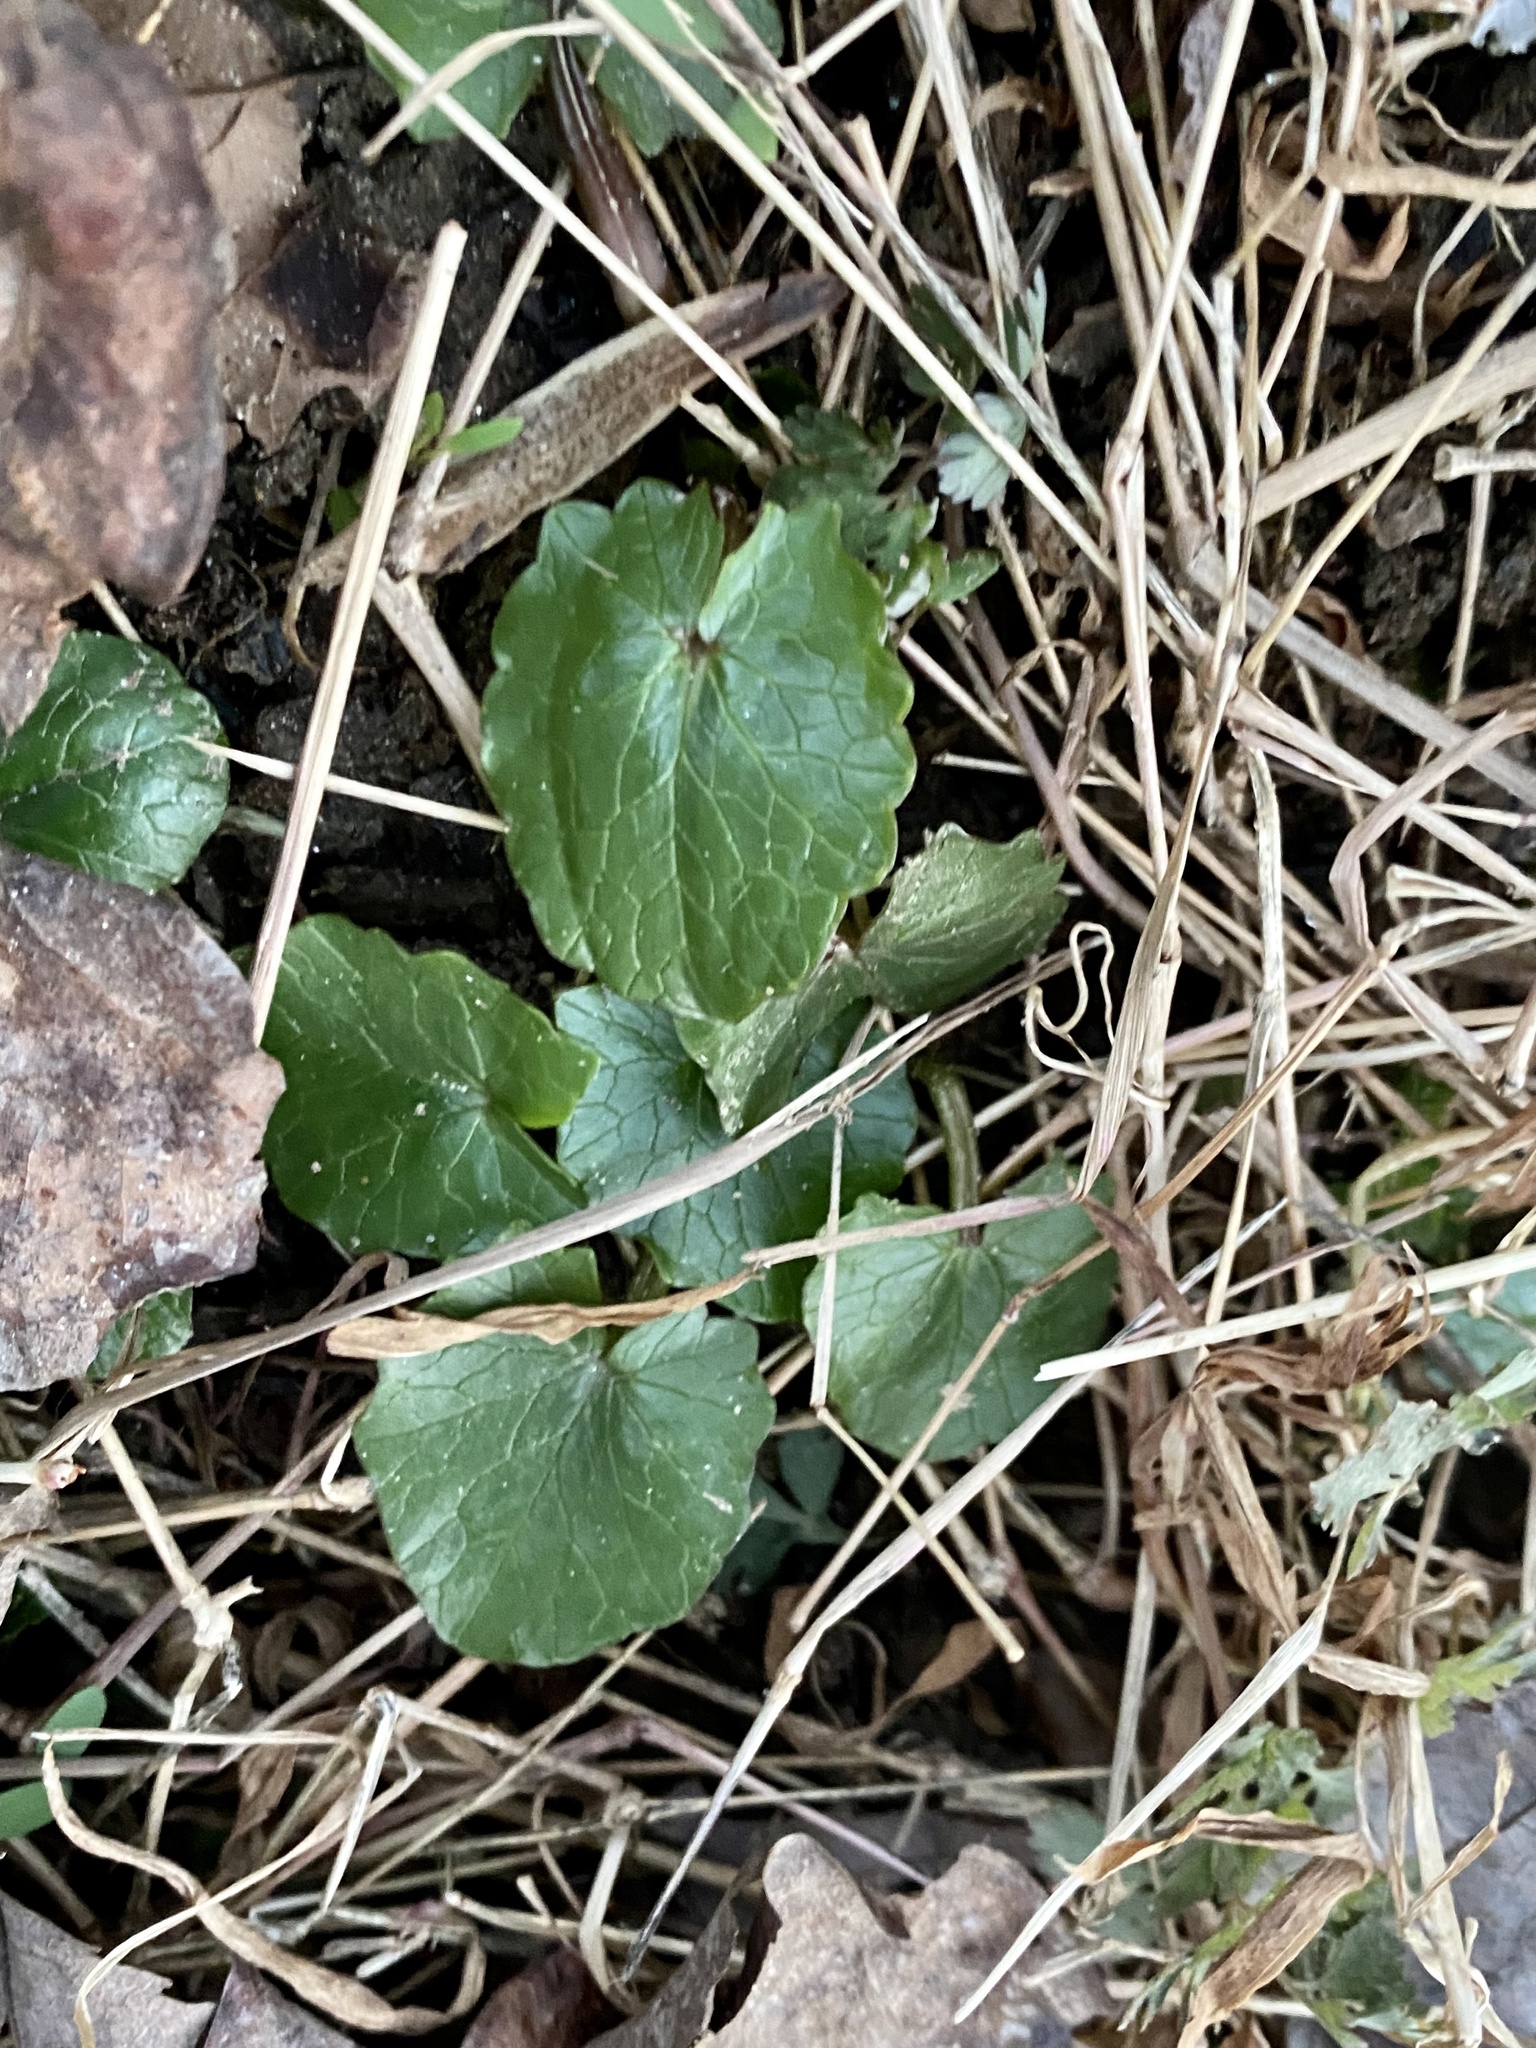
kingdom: Plantae
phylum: Tracheophyta
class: Magnoliopsida
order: Ranunculales
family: Ranunculaceae
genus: Ficaria
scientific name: Ficaria verna
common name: Lesser celandine
